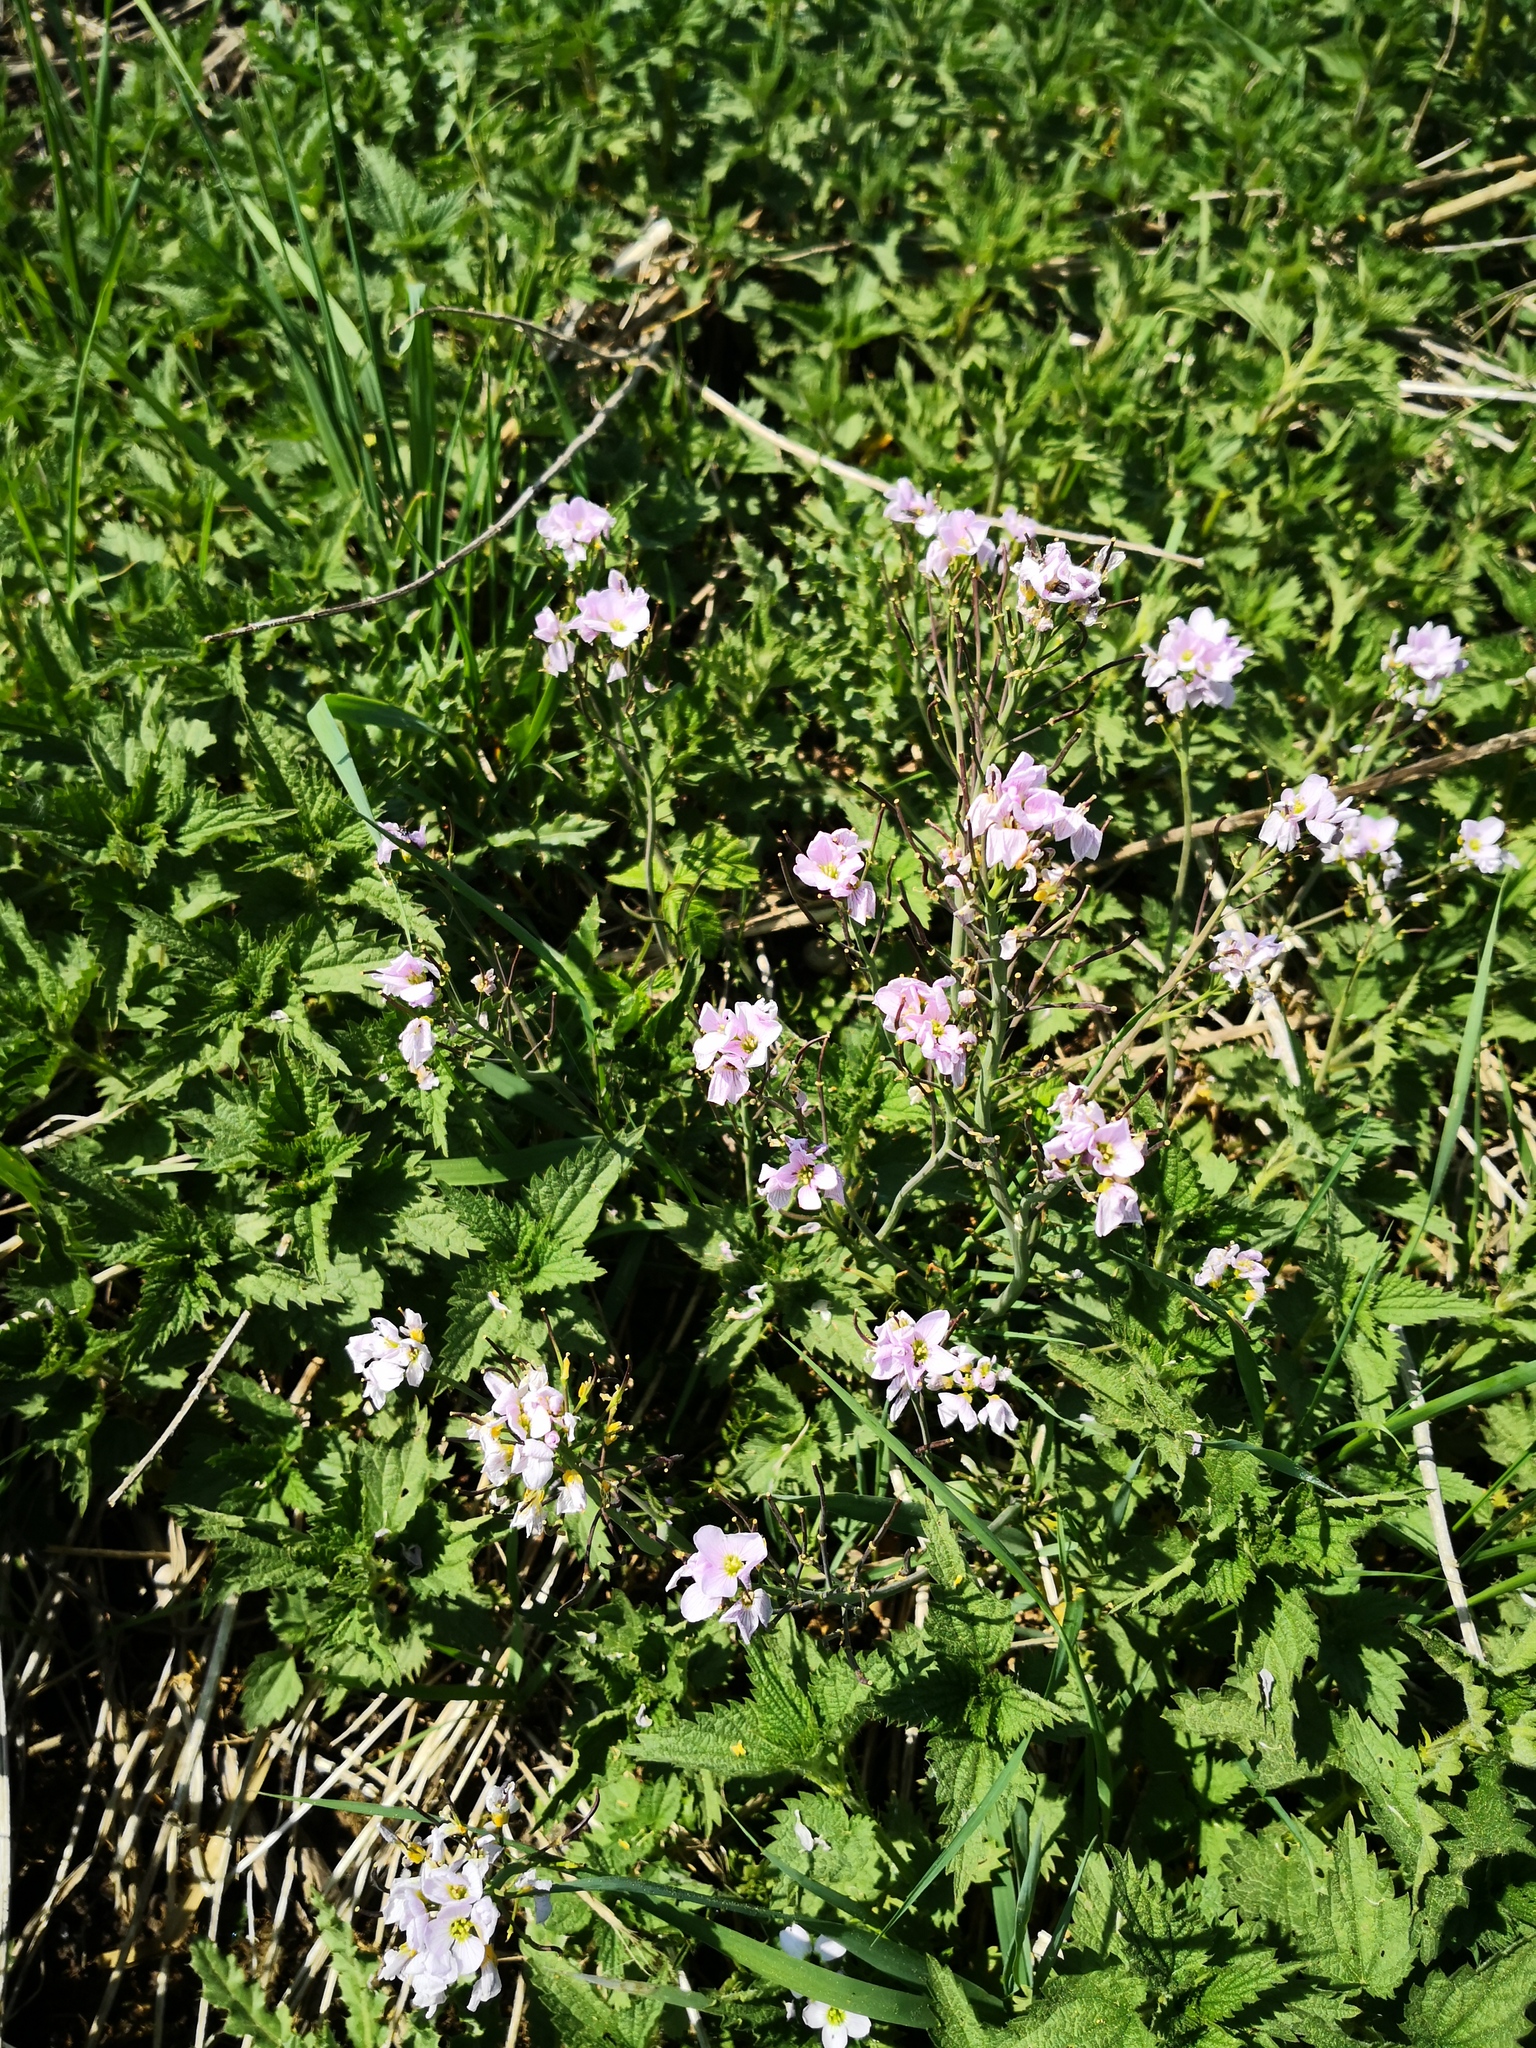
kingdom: Plantae
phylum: Tracheophyta
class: Magnoliopsida
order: Brassicales
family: Brassicaceae
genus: Cardamine
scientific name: Cardamine pratensis
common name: Cuckoo flower
